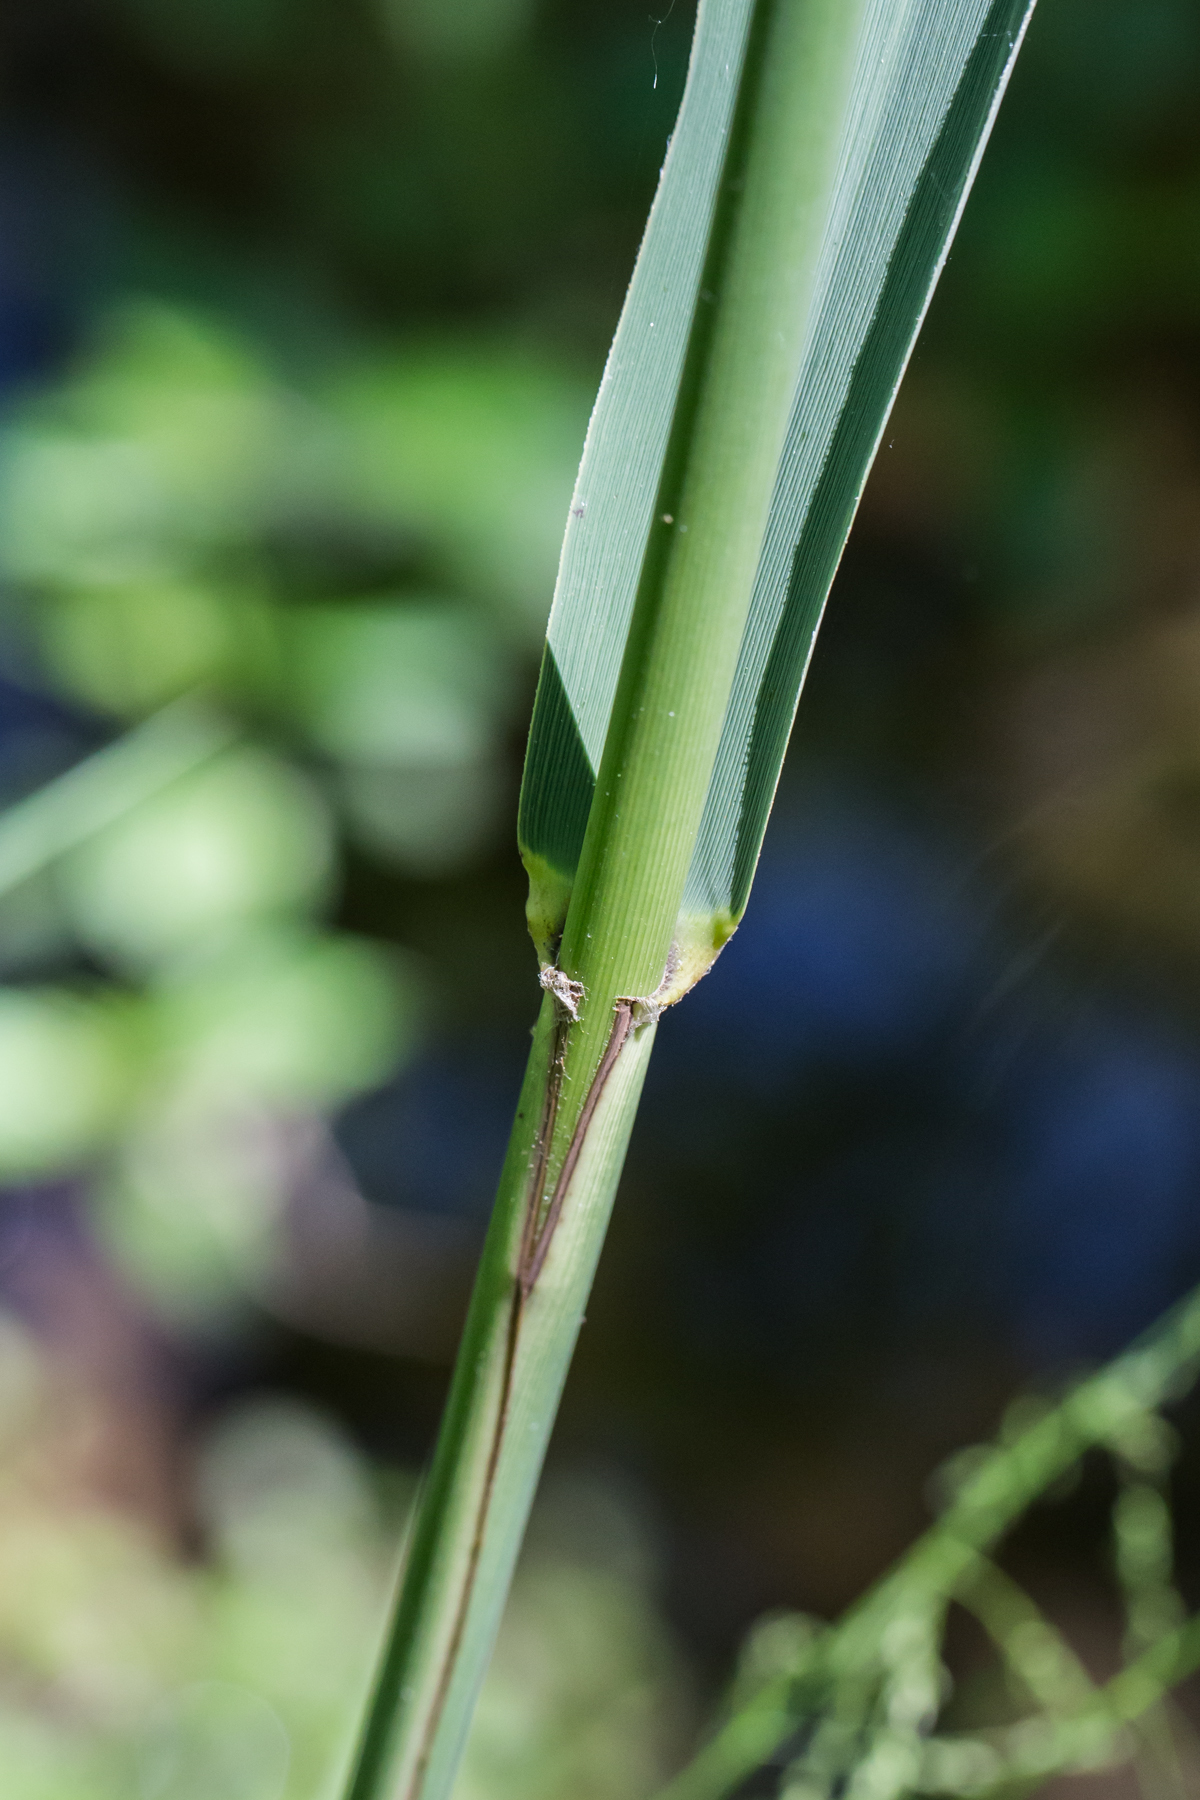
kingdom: Plantae
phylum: Tracheophyta
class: Liliopsida
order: Poales
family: Poaceae
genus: Phragmites
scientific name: Phragmites australis
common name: Common reed
